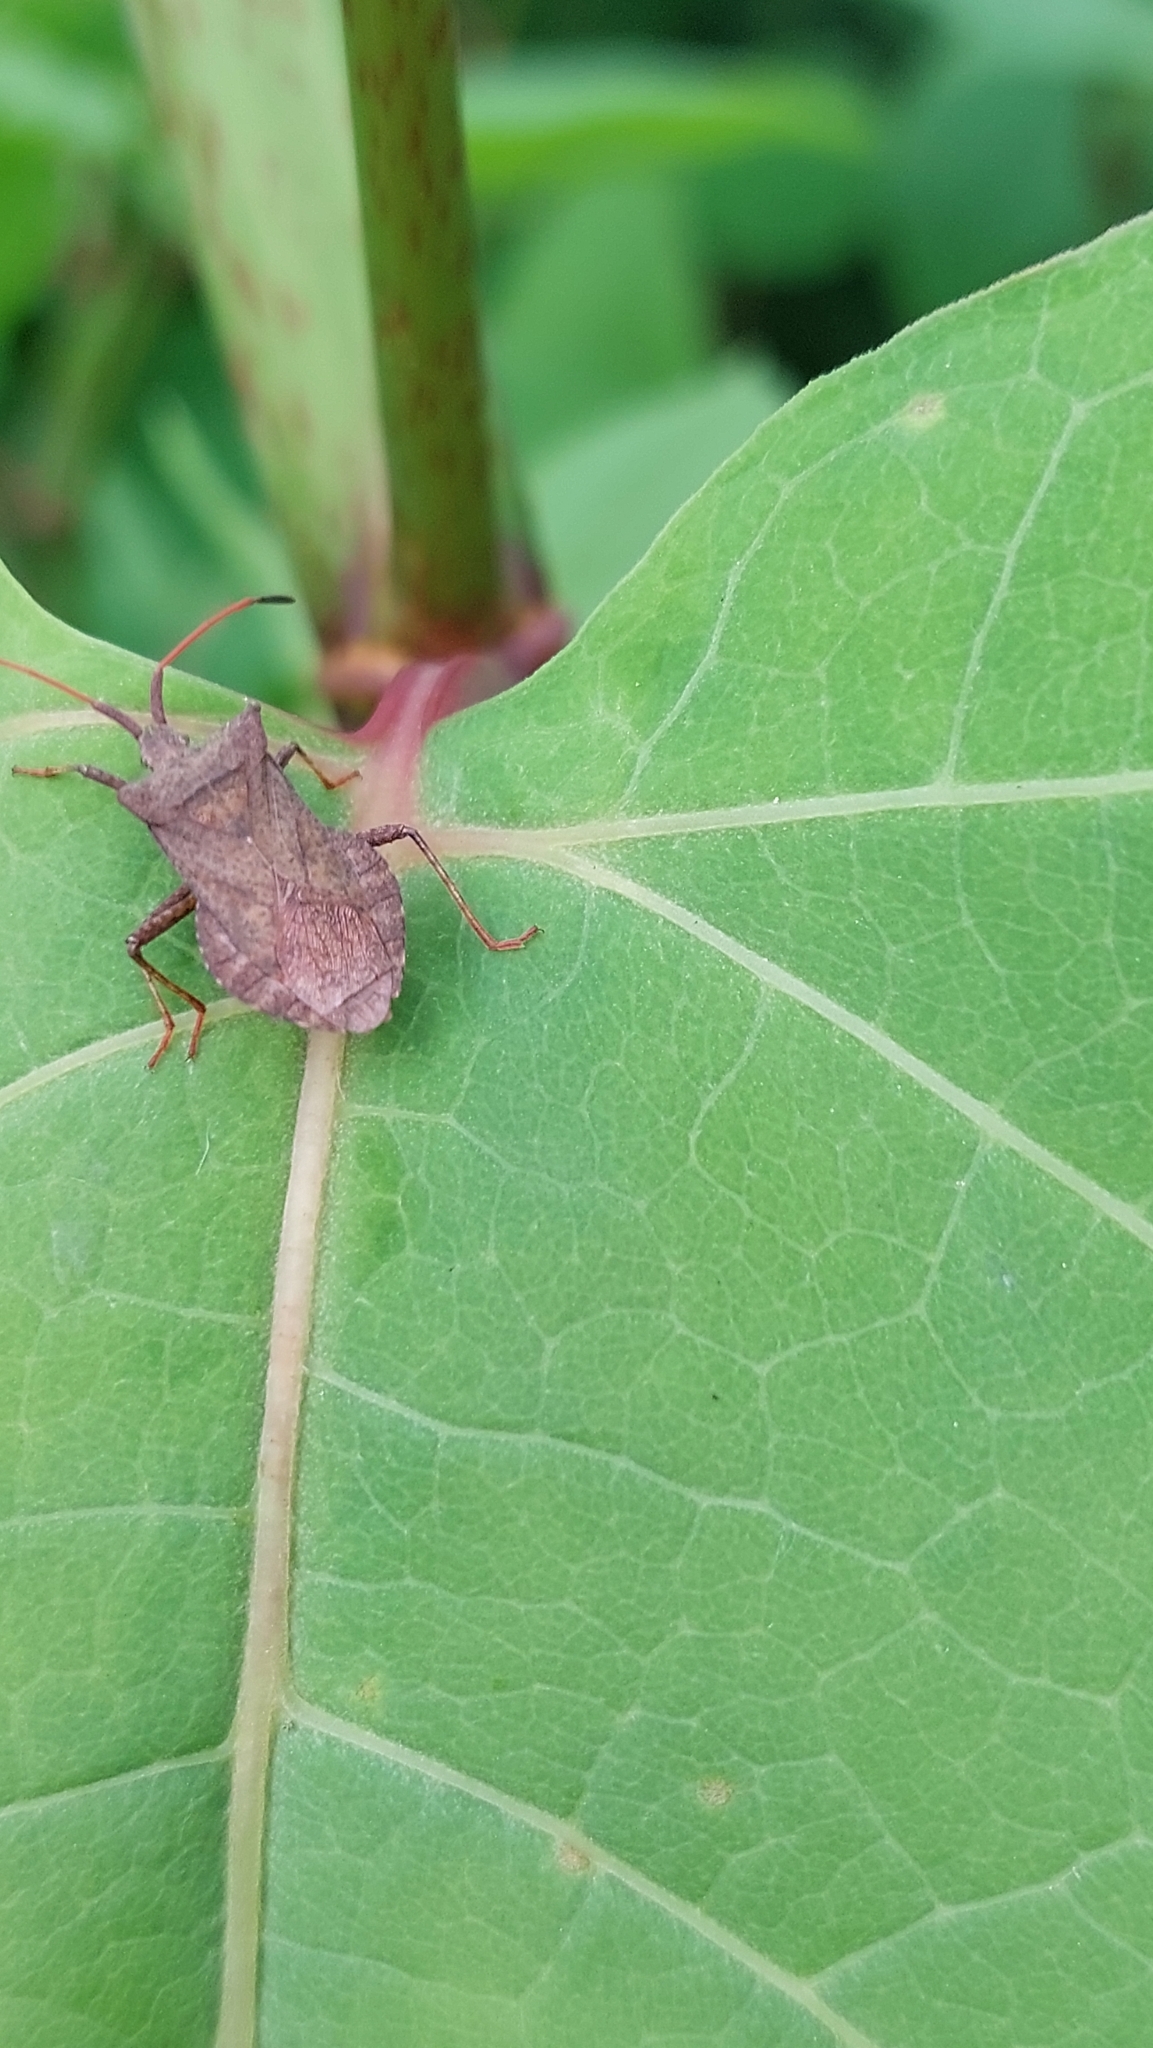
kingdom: Animalia
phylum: Arthropoda
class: Insecta
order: Hemiptera
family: Coreidae
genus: Coreus
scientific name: Coreus marginatus
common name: Dock bug
